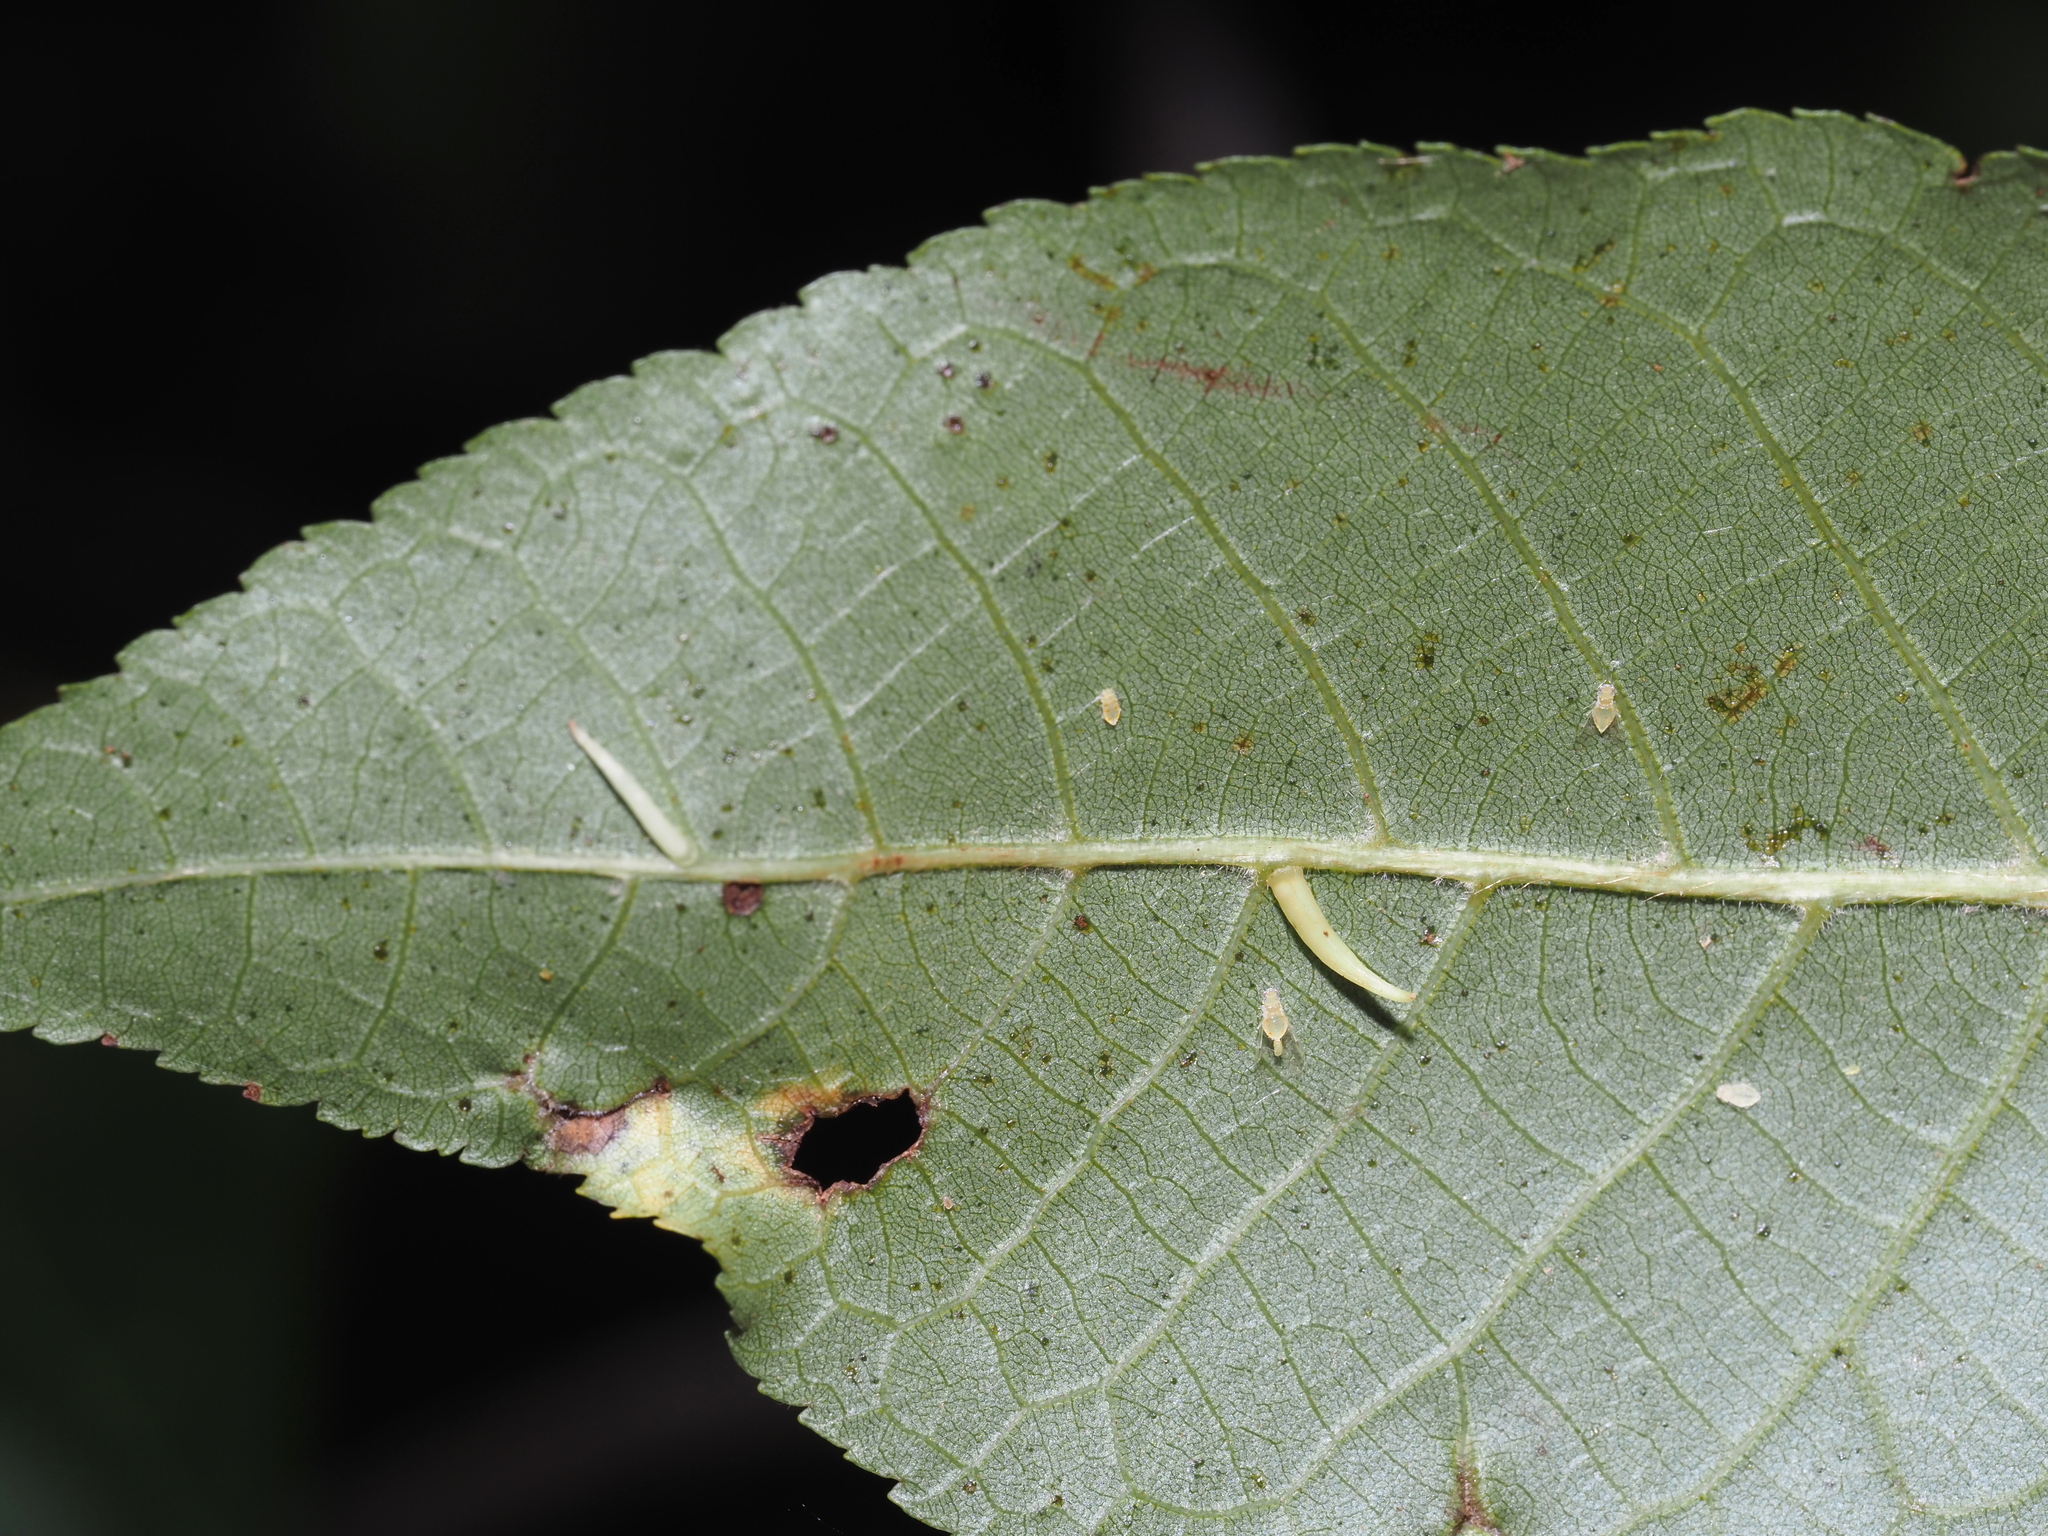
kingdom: Animalia
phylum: Arthropoda
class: Insecta
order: Diptera
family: Cecidomyiidae
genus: Caryomyia
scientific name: Caryomyia
